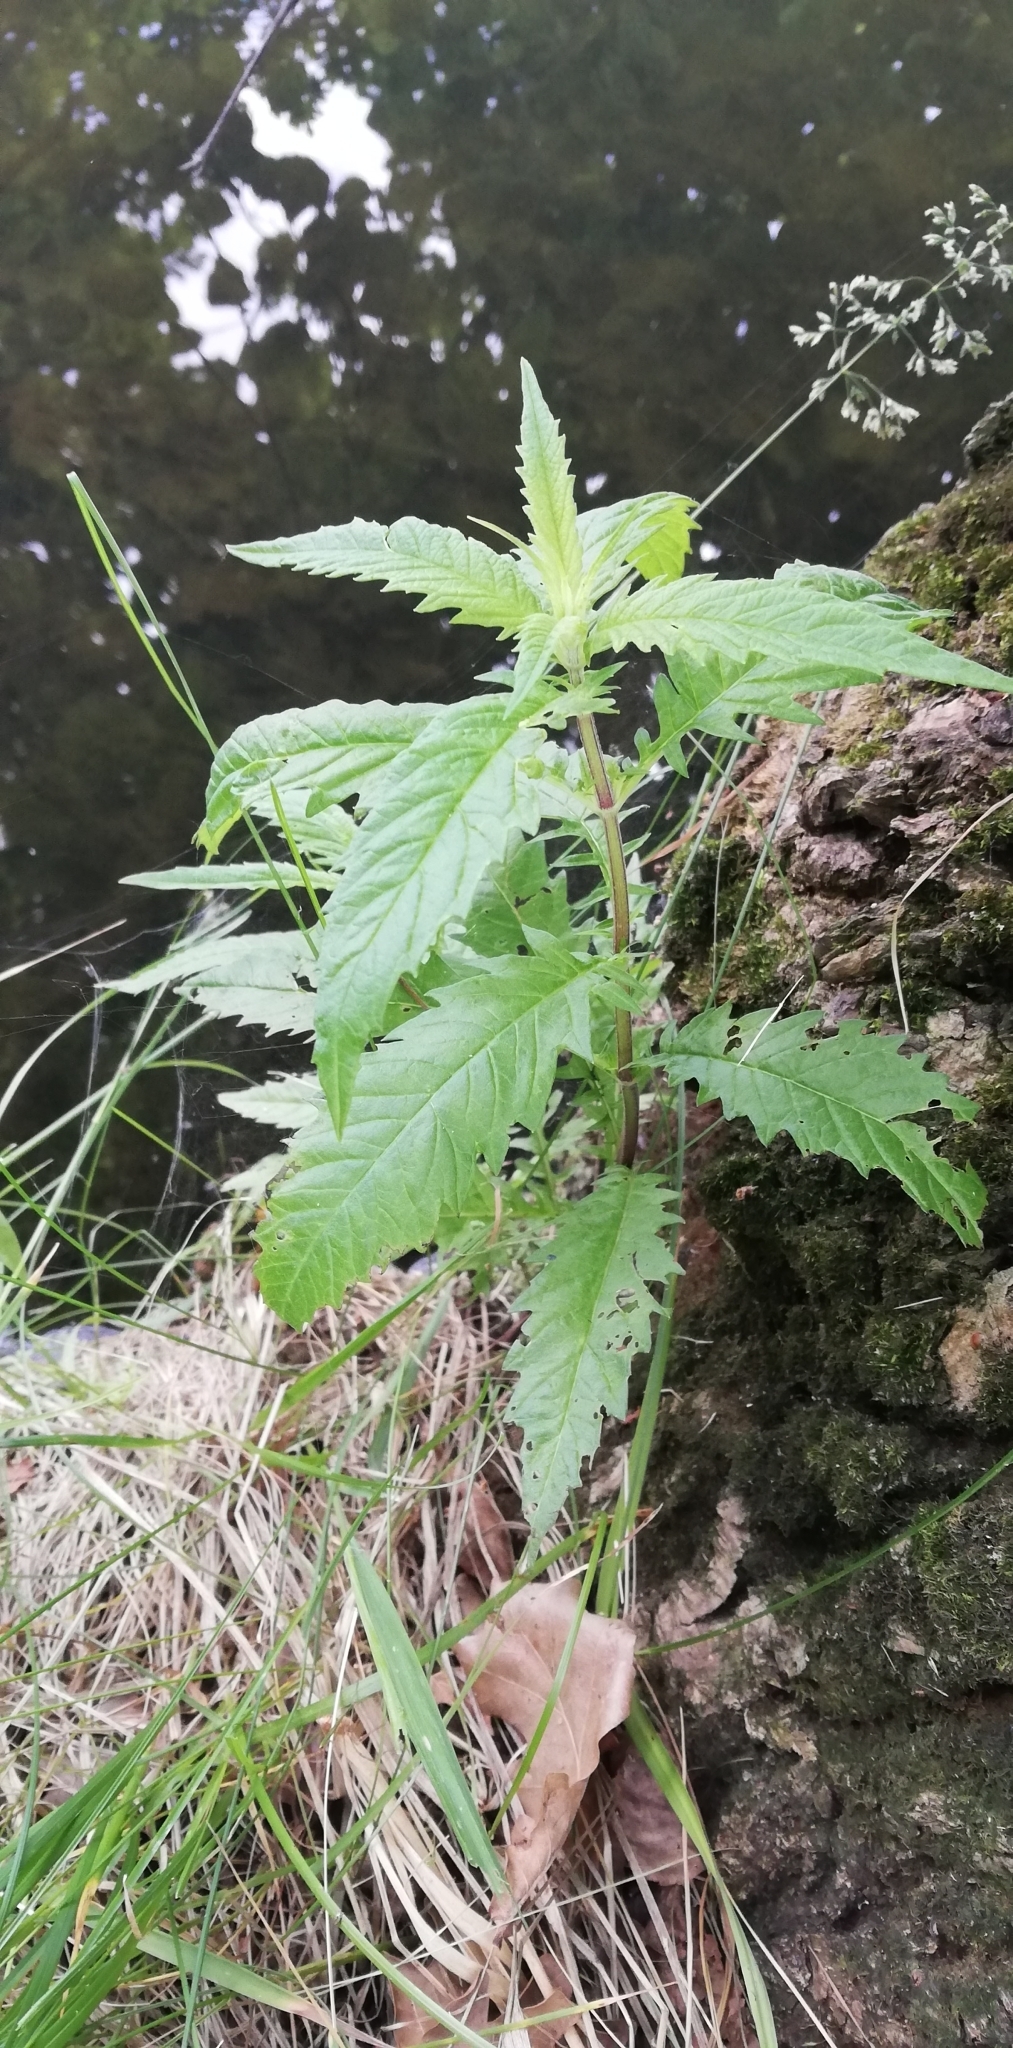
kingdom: Plantae
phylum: Tracheophyta
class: Magnoliopsida
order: Lamiales
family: Lamiaceae
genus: Lycopus
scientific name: Lycopus europaeus
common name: European bugleweed
